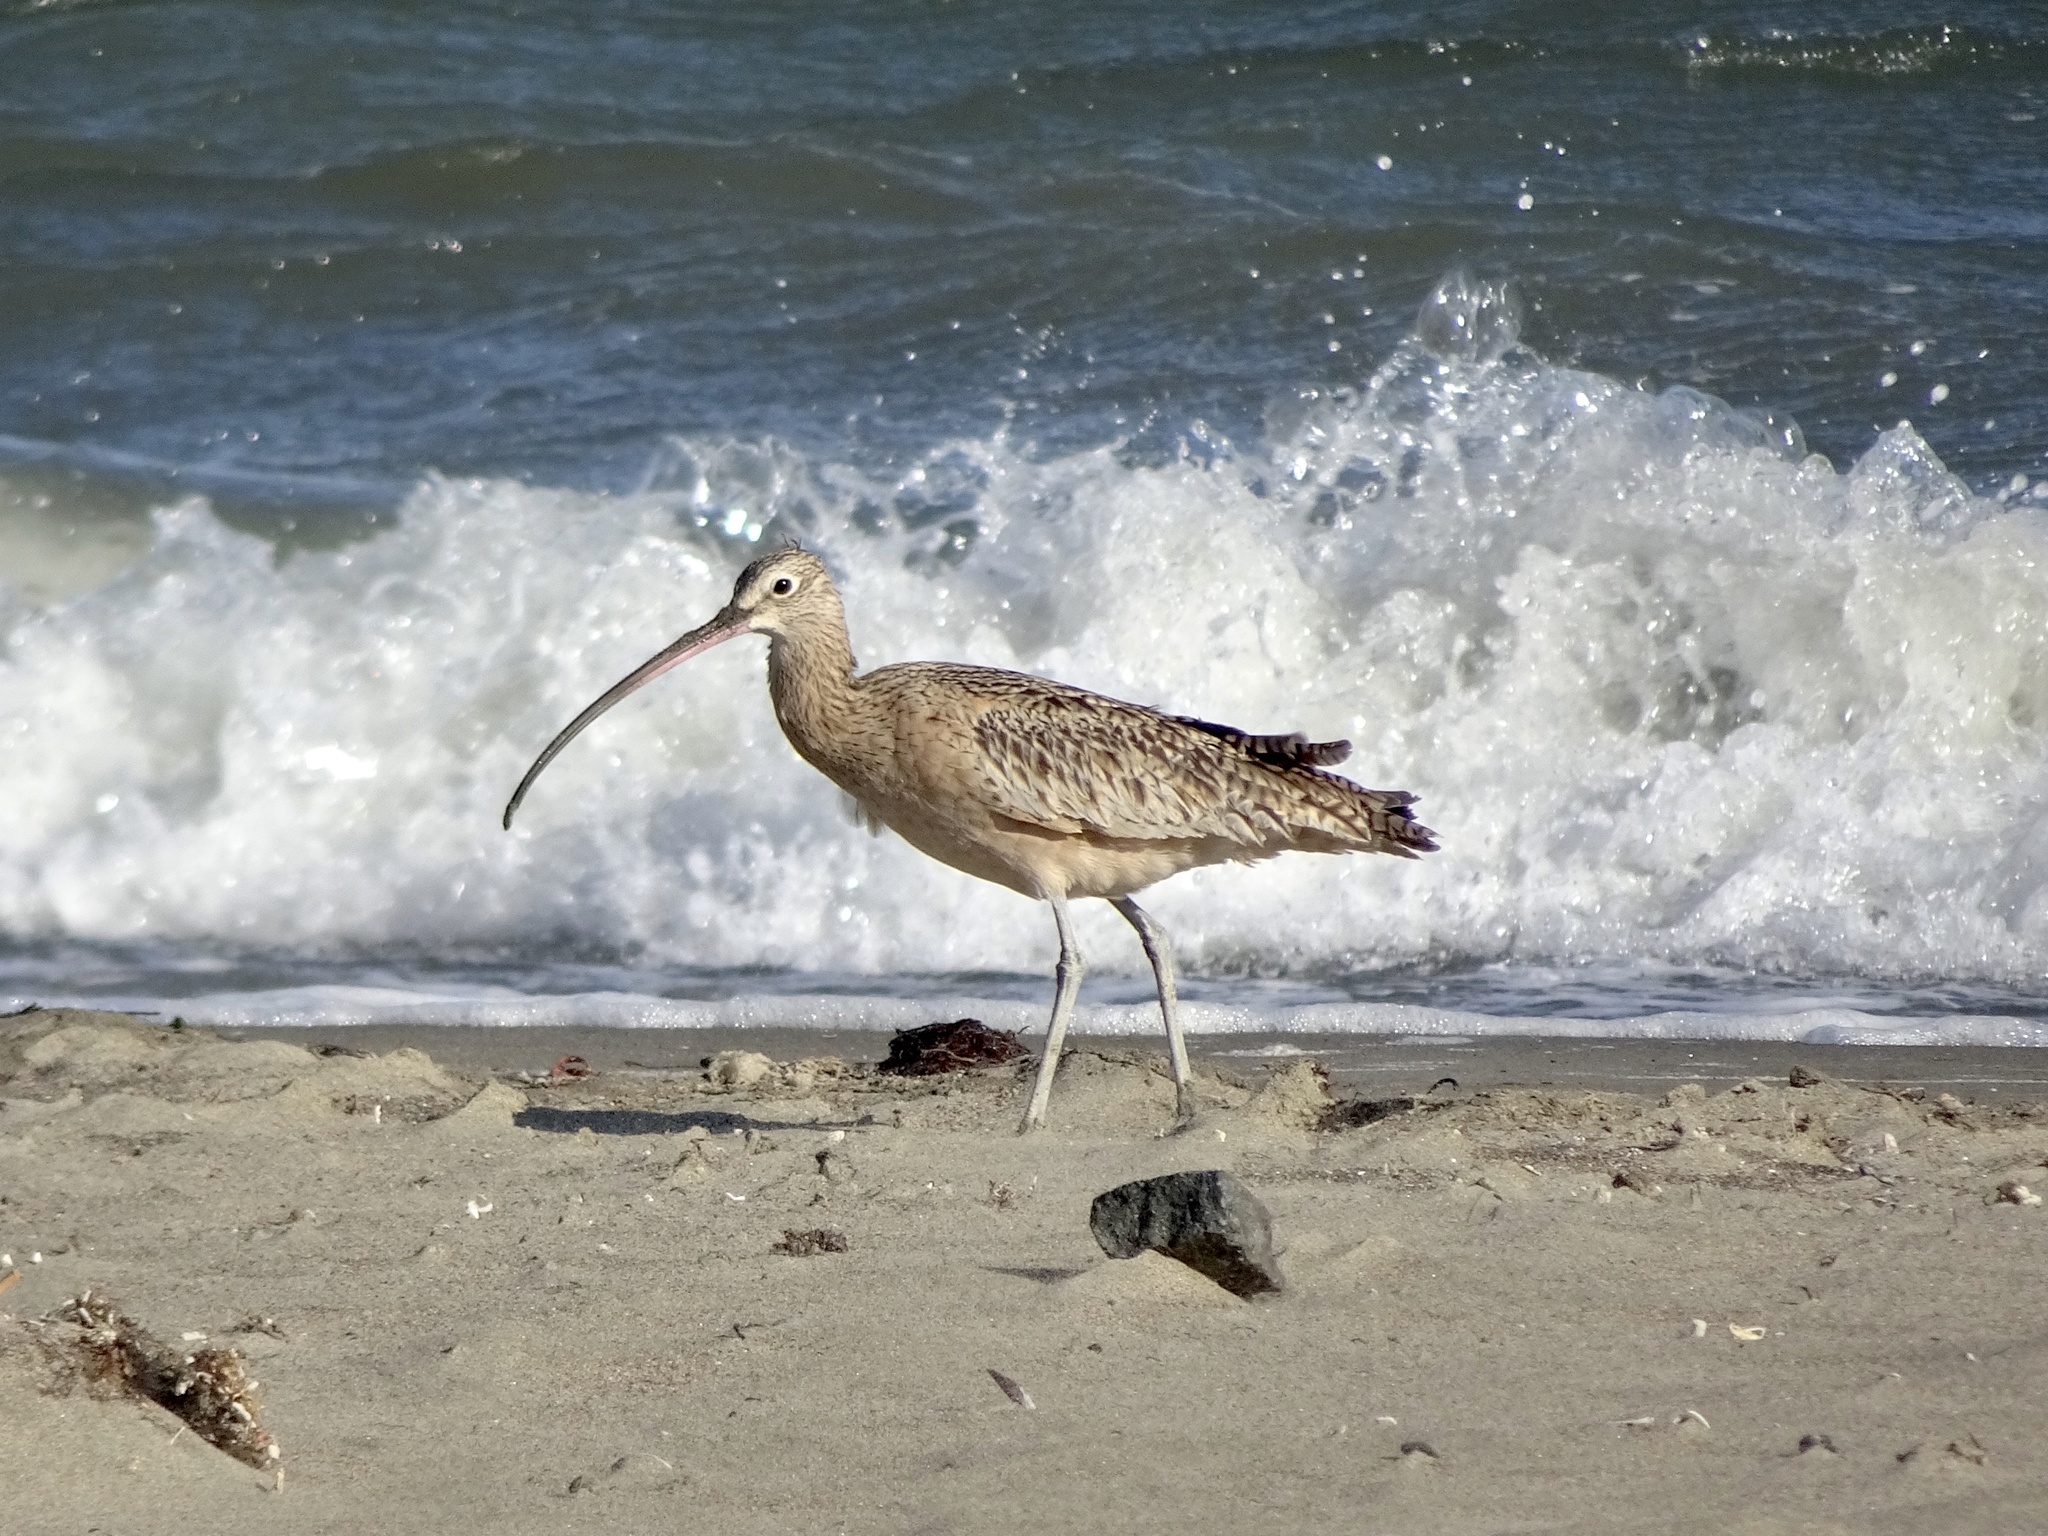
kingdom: Animalia
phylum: Chordata
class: Aves
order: Charadriiformes
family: Scolopacidae
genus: Numenius
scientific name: Numenius americanus
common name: Long-billed curlew
